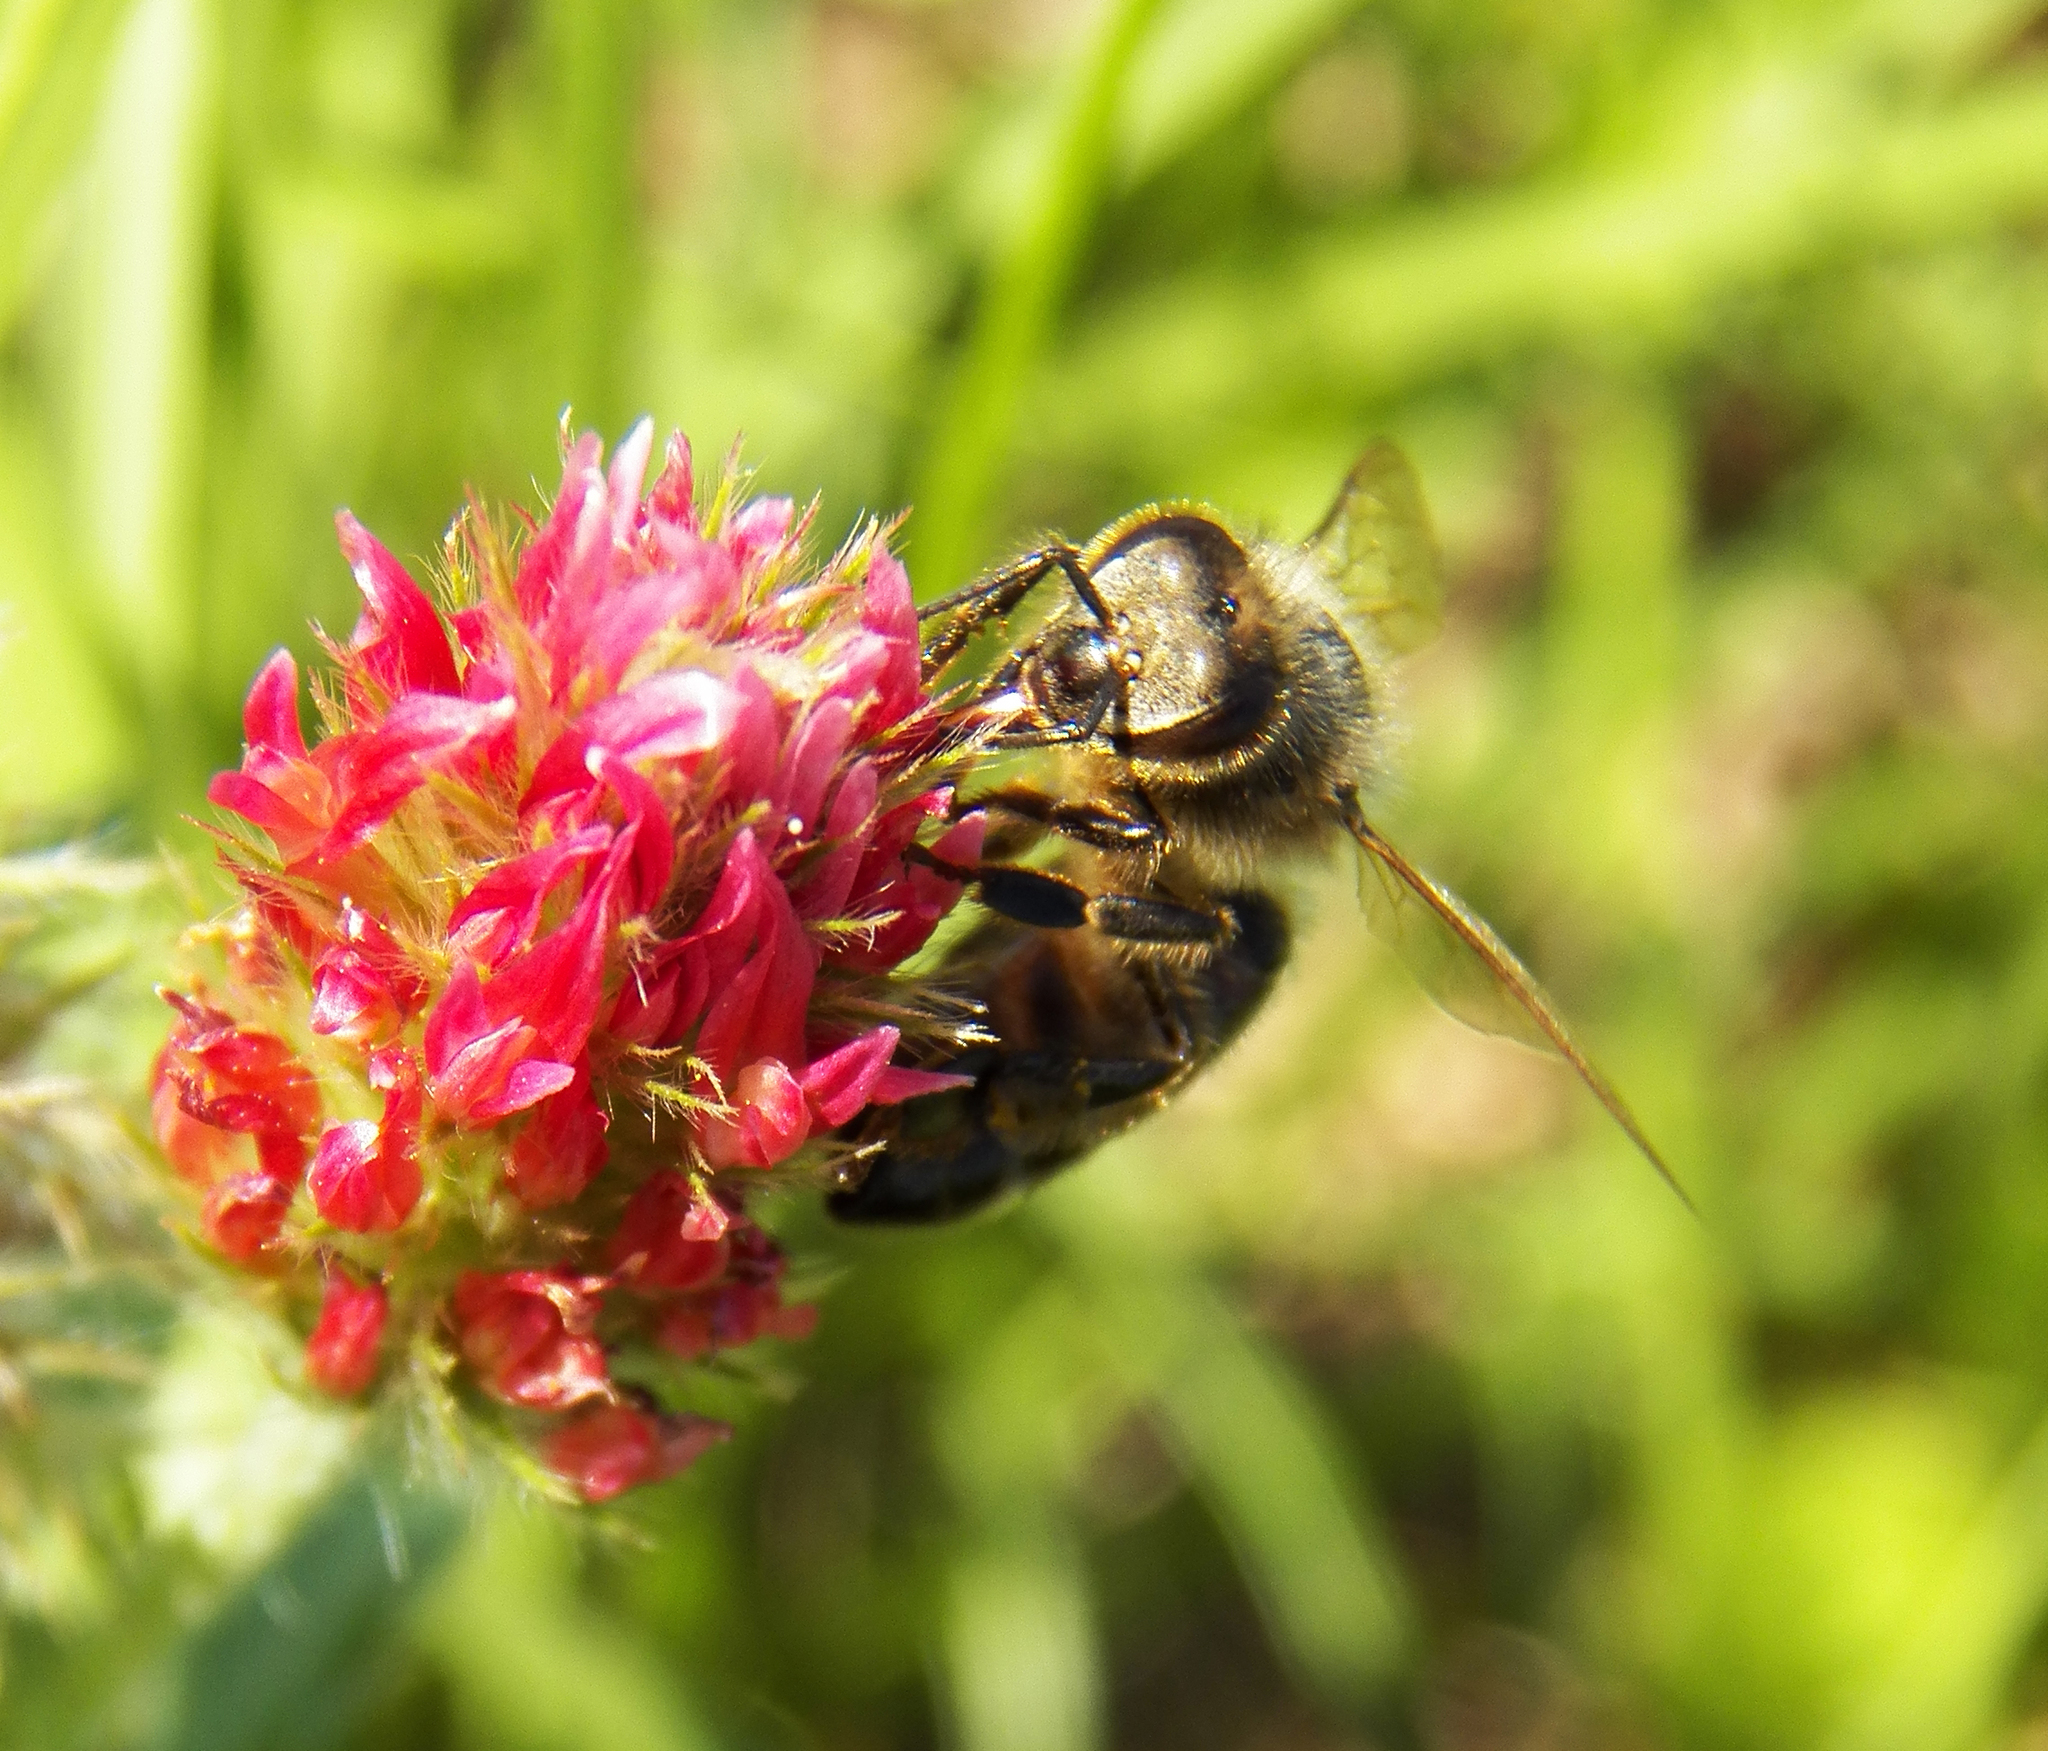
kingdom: Animalia
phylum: Arthropoda
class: Insecta
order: Hymenoptera
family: Apidae
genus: Apis
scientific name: Apis mellifera
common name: Honey bee
